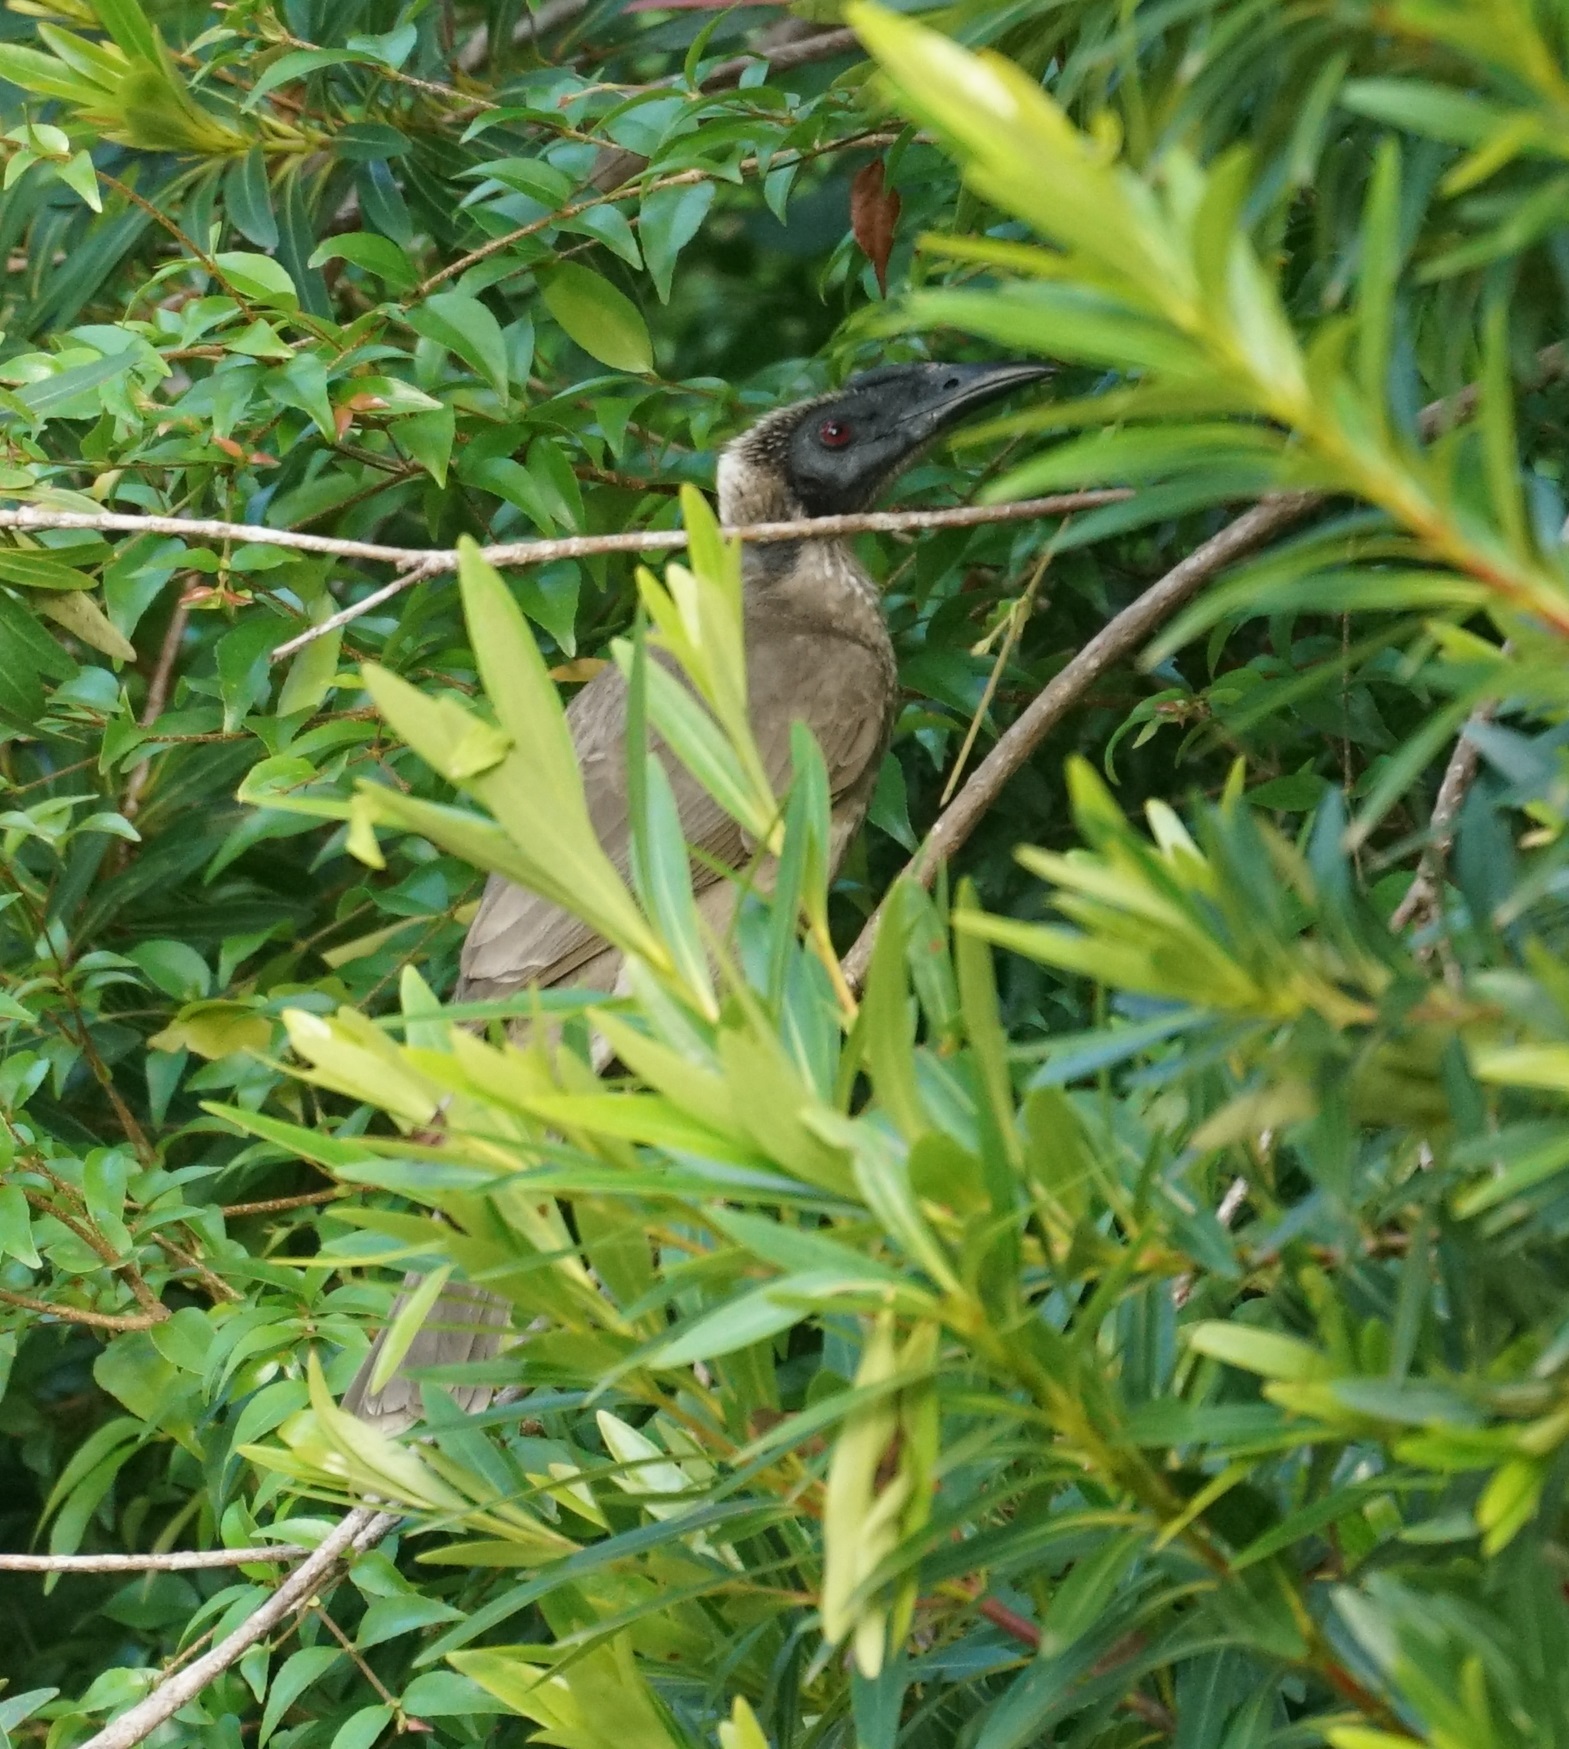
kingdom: Animalia
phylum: Chordata
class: Aves
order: Passeriformes
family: Meliphagidae
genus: Philemon
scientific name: Philemon buceroides
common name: Helmeted friarbird
